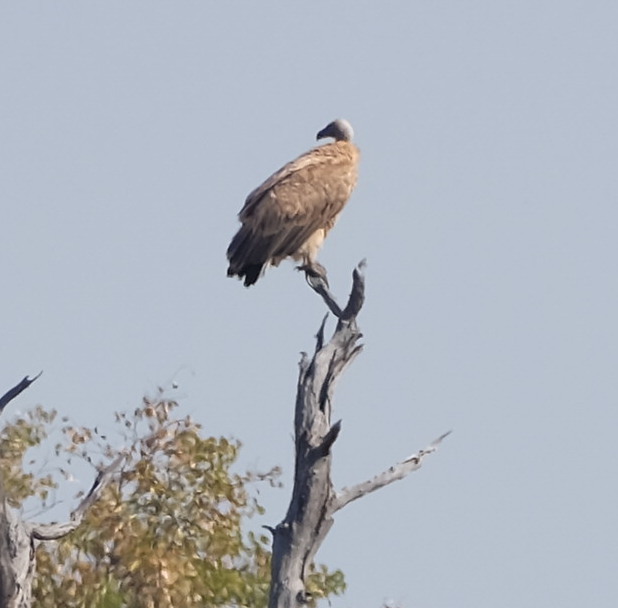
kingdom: Animalia
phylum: Chordata
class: Aves
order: Accipitriformes
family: Accipitridae
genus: Gyps
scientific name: Gyps africanus
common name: White-backed vulture
